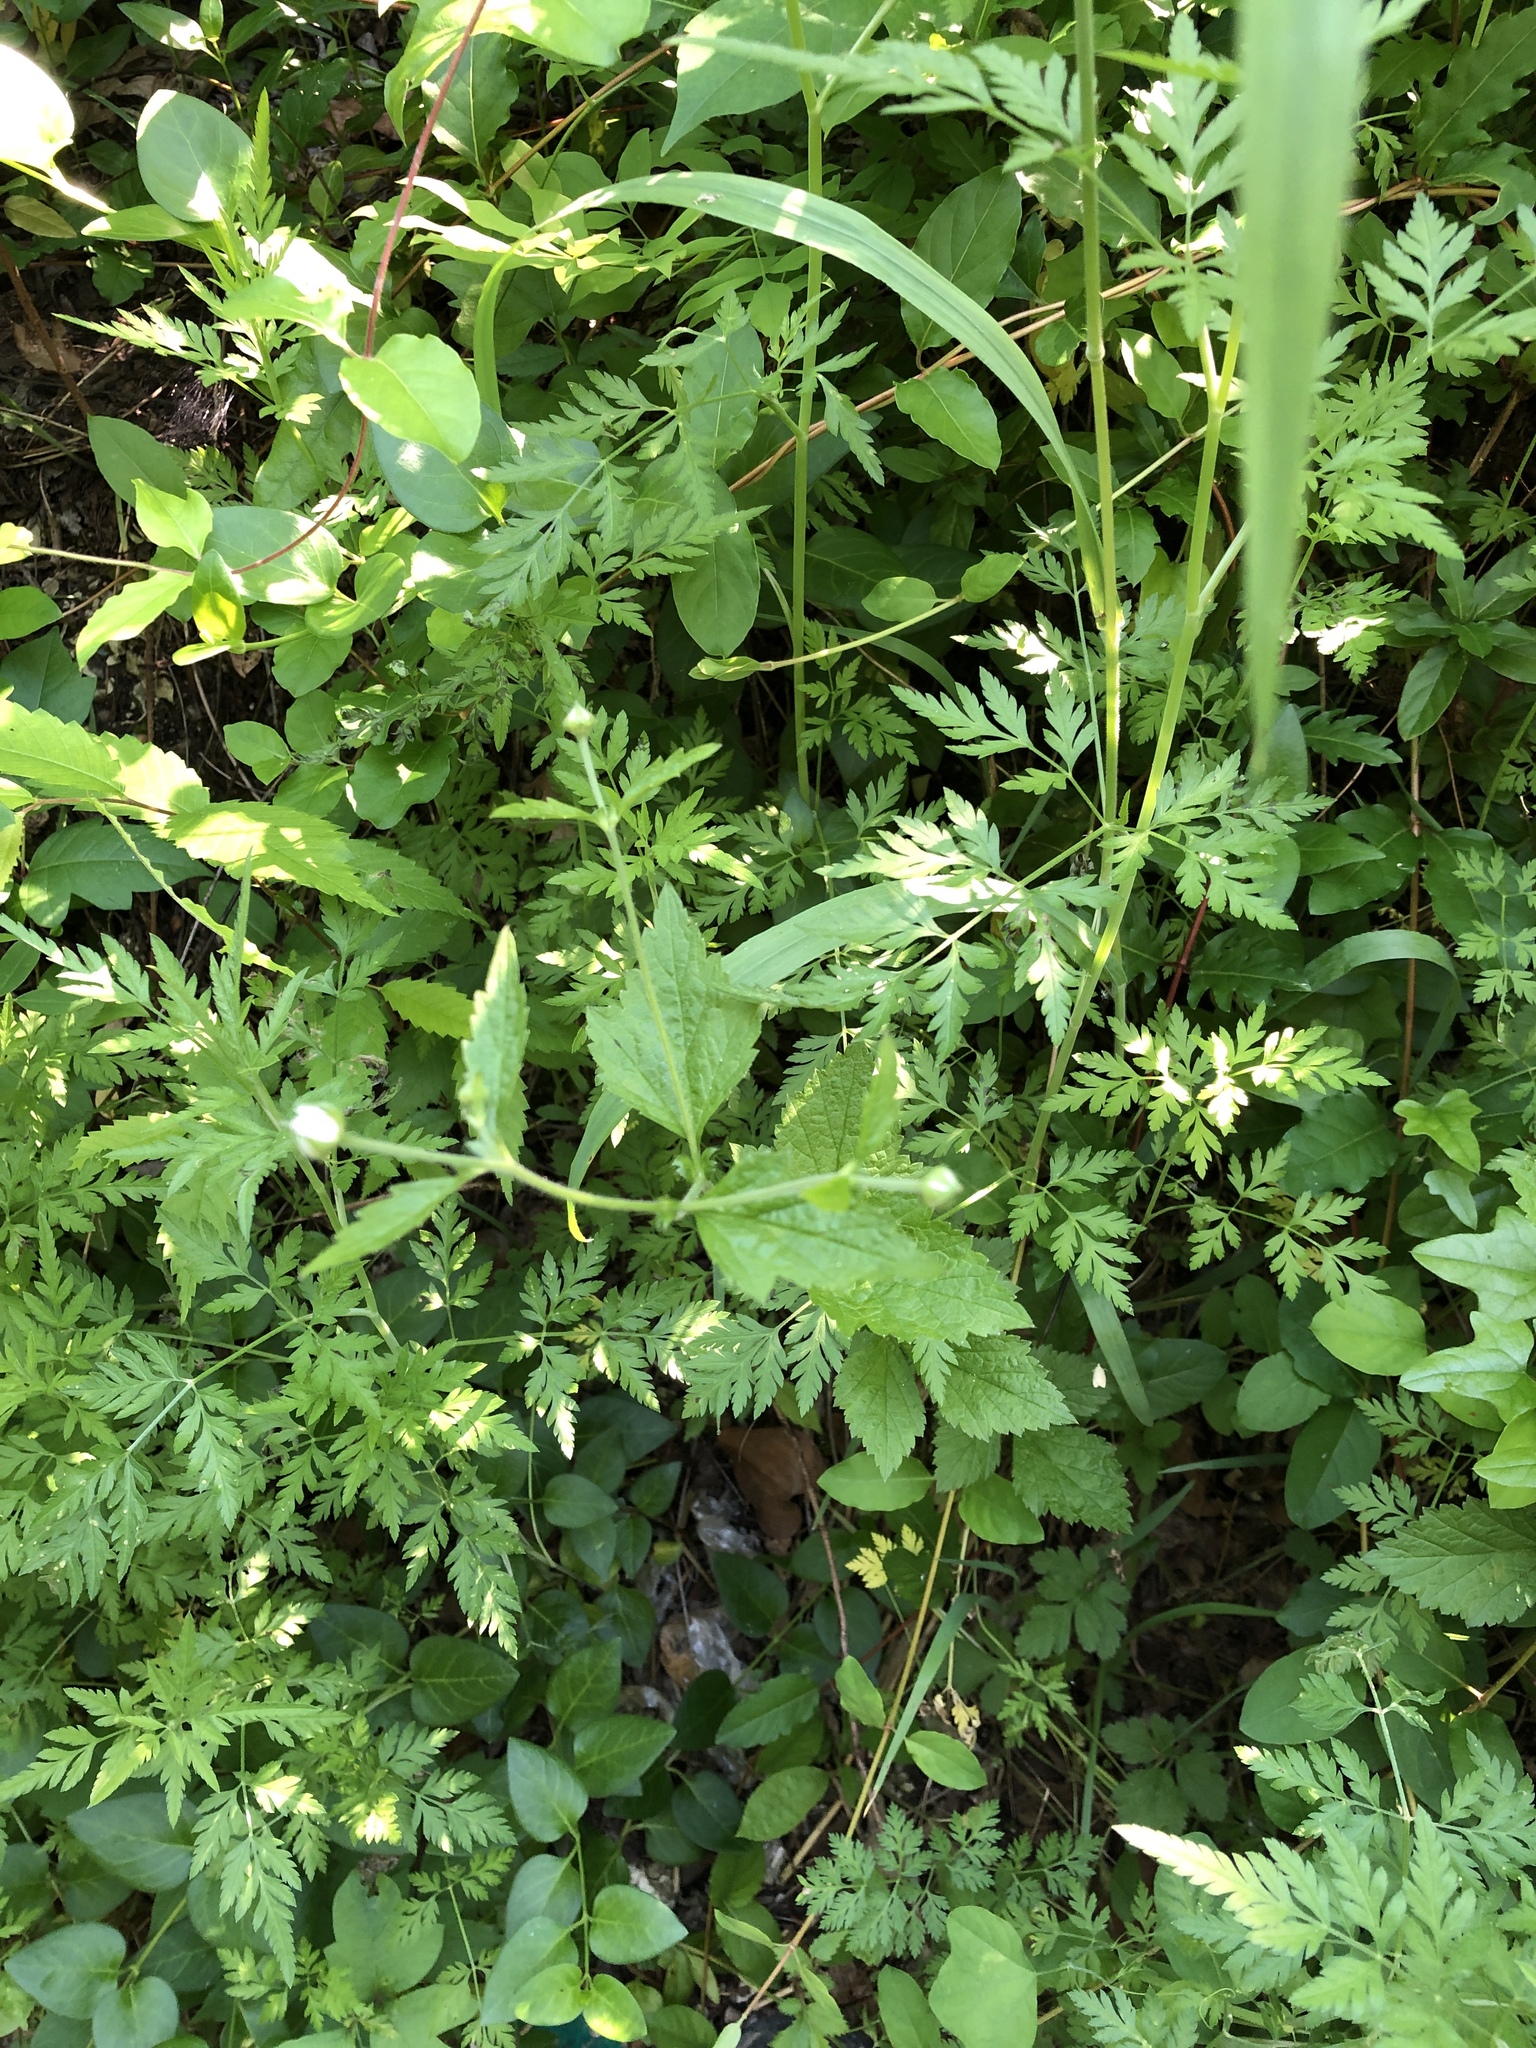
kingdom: Plantae
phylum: Tracheophyta
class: Magnoliopsida
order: Rosales
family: Rosaceae
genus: Geum
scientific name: Geum canadense
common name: White avens
